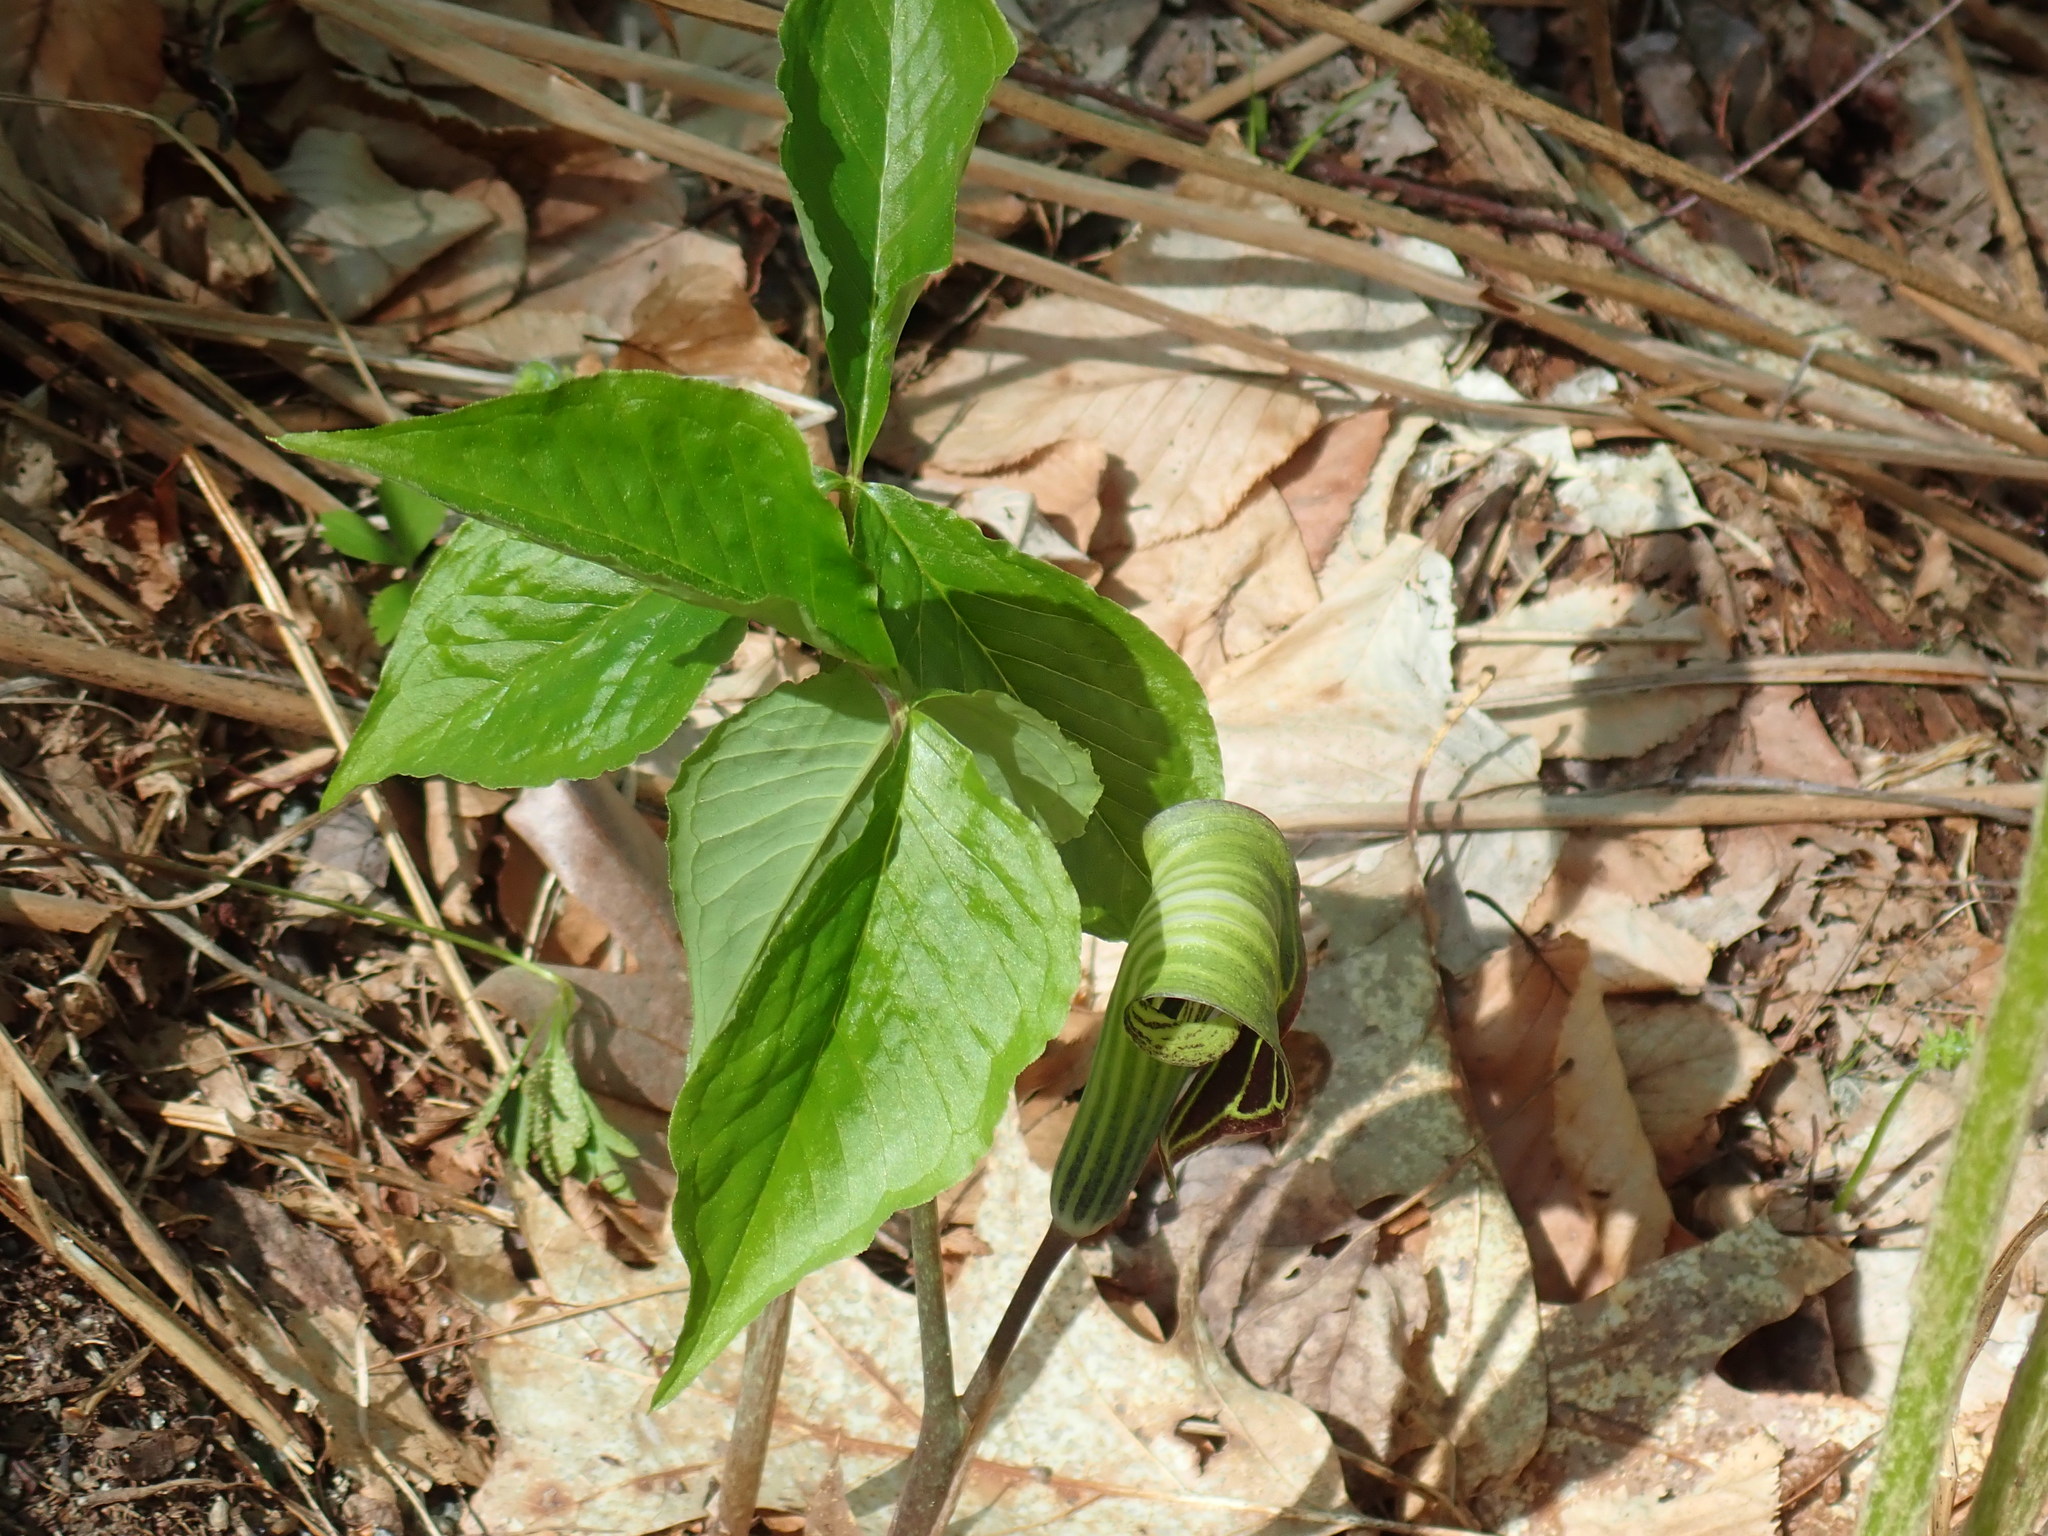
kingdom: Plantae
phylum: Tracheophyta
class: Liliopsida
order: Alismatales
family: Araceae
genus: Arisaema
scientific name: Arisaema triphyllum
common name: Jack-in-the-pulpit
